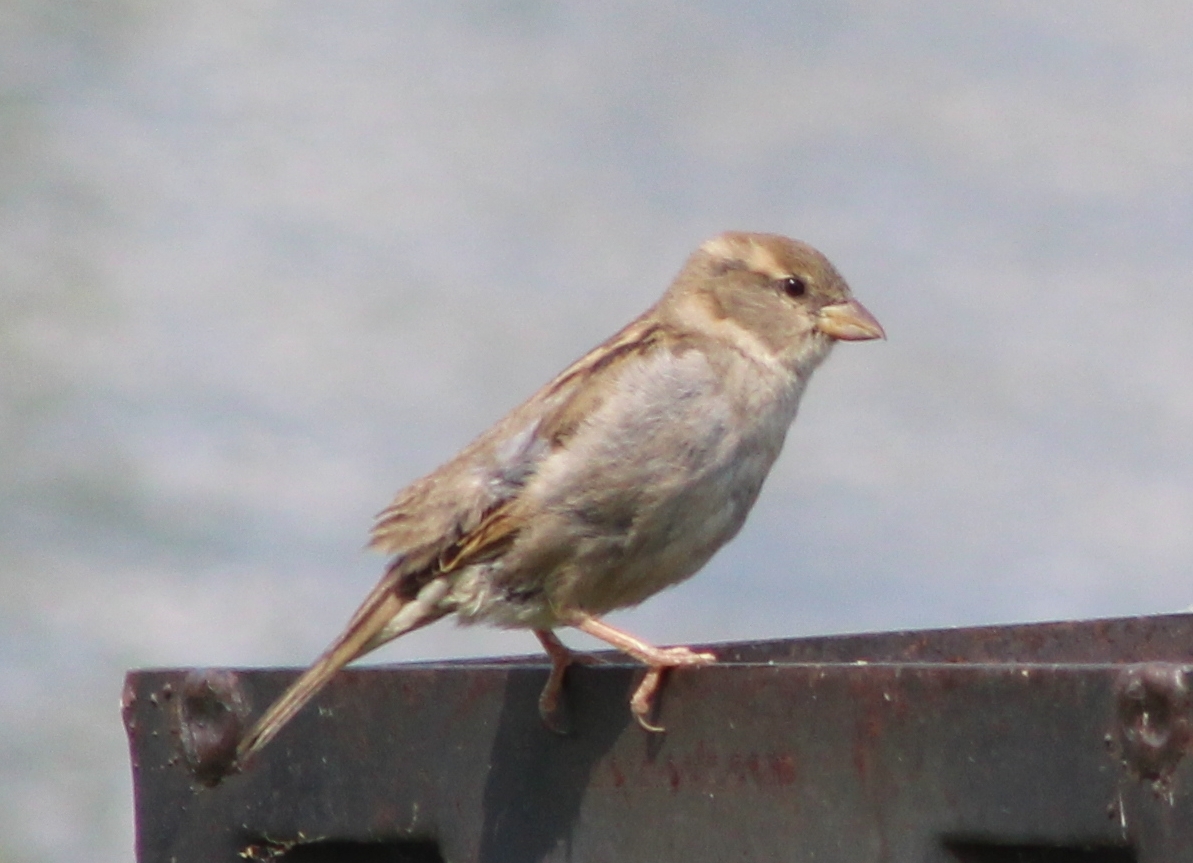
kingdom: Animalia
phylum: Chordata
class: Aves
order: Passeriformes
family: Passeridae
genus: Passer
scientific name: Passer domesticus
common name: House sparrow
